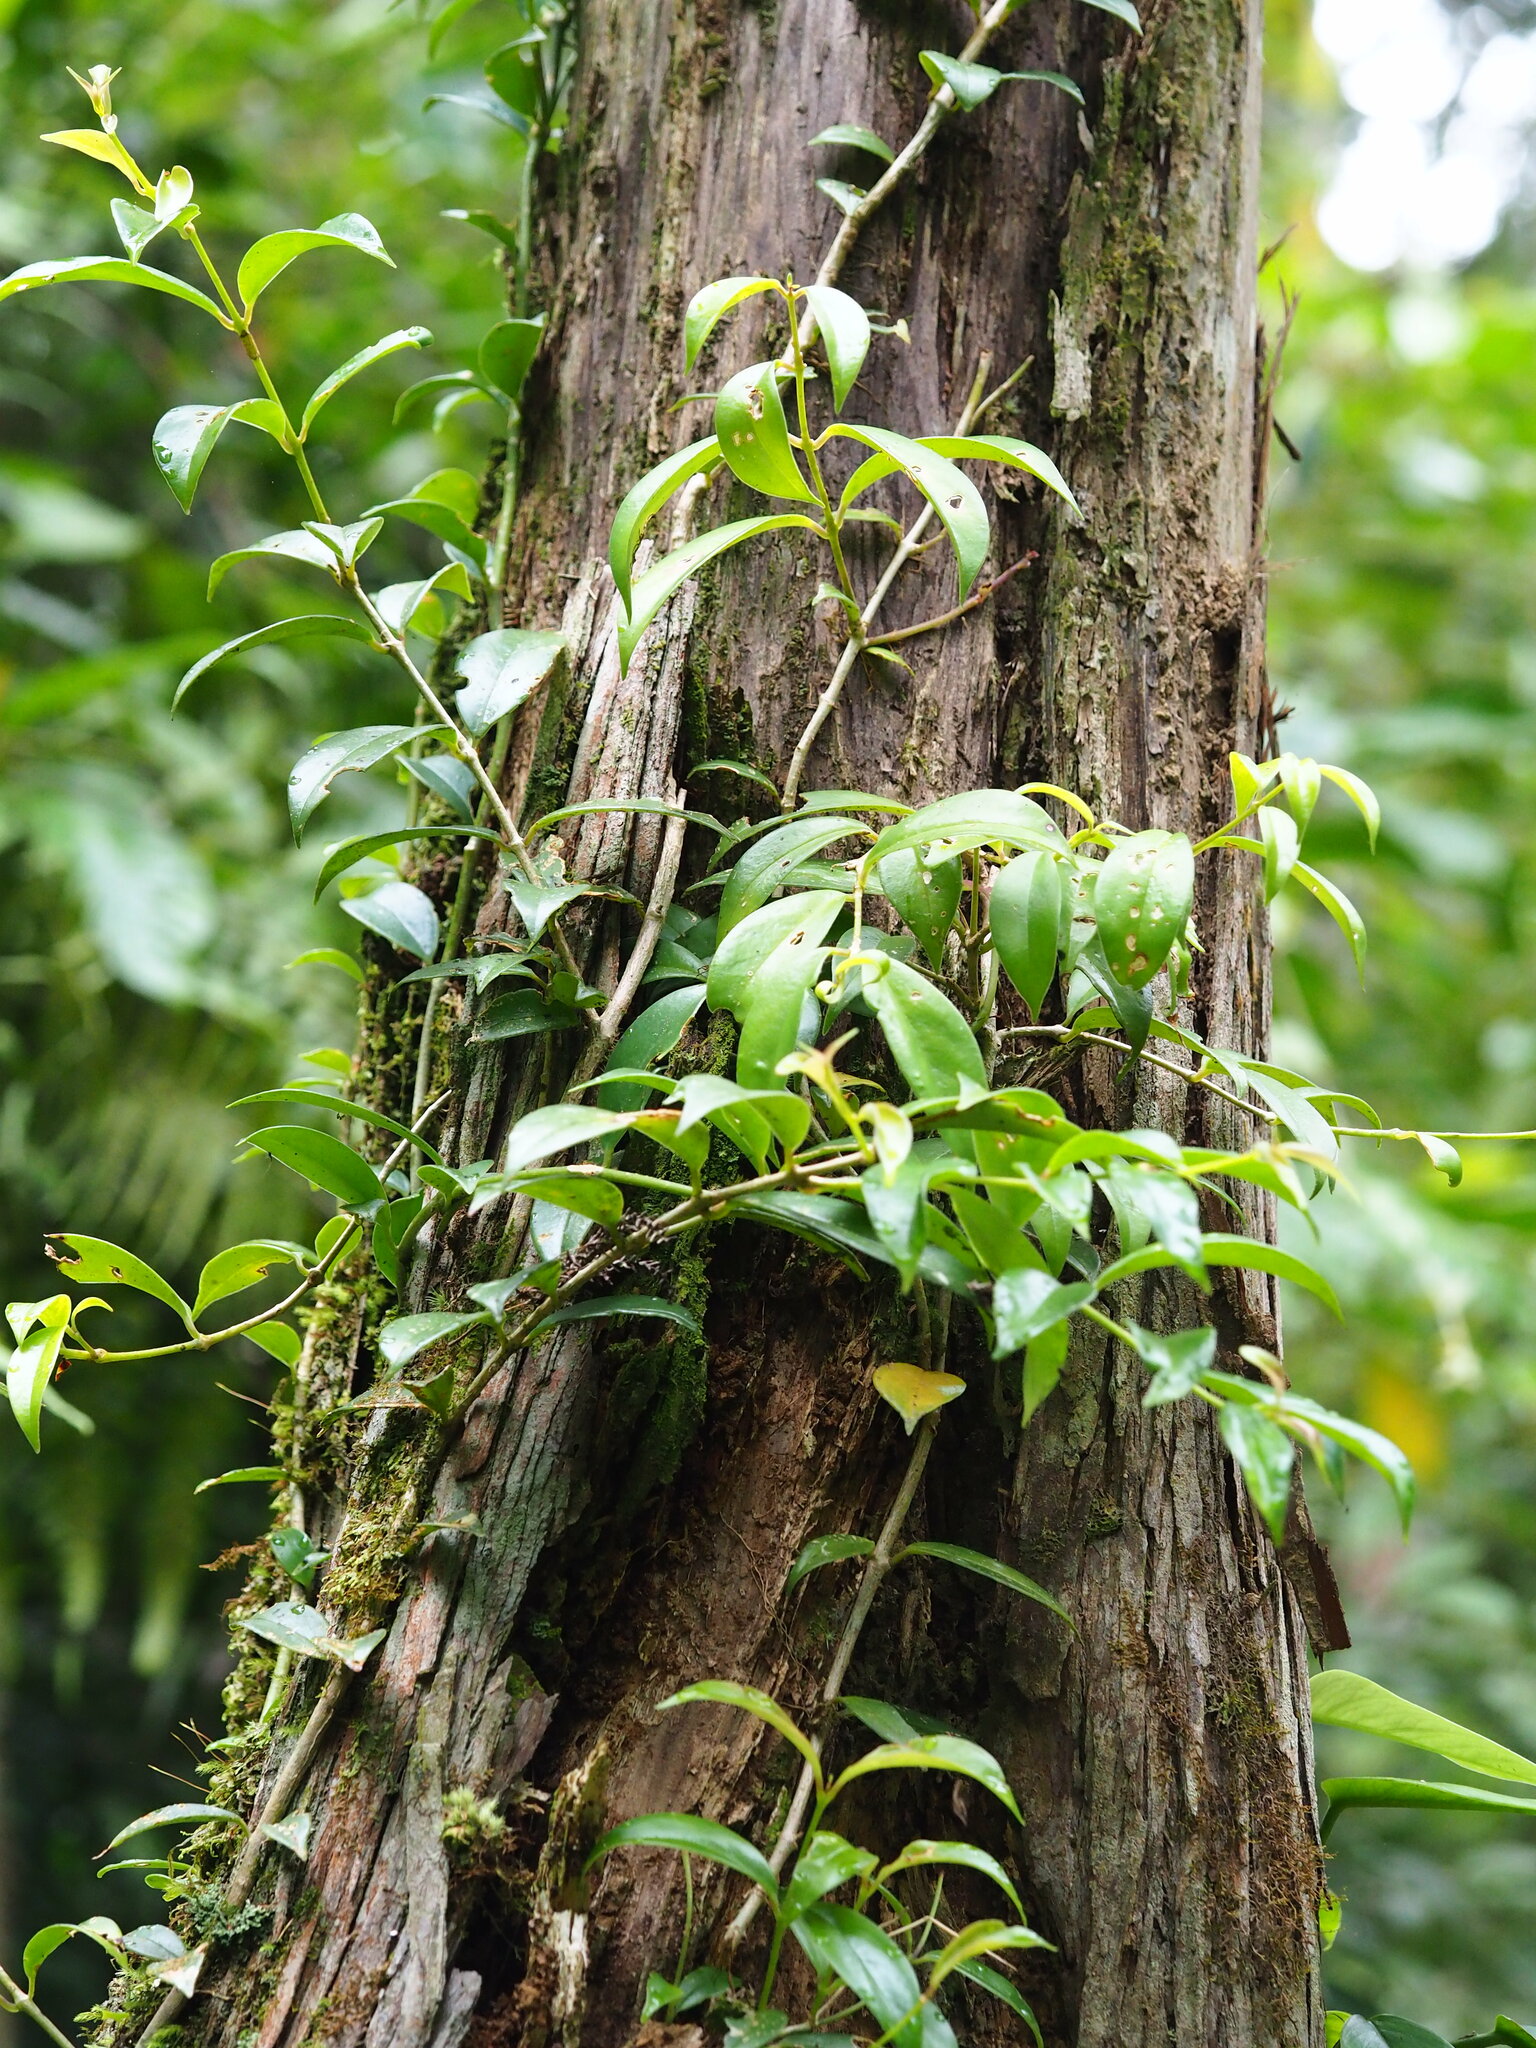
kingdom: Plantae
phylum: Tracheophyta
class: Magnoliopsida
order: Lamiales
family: Gesneriaceae
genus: Aeschynanthus
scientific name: Aeschynanthus acuminatus
